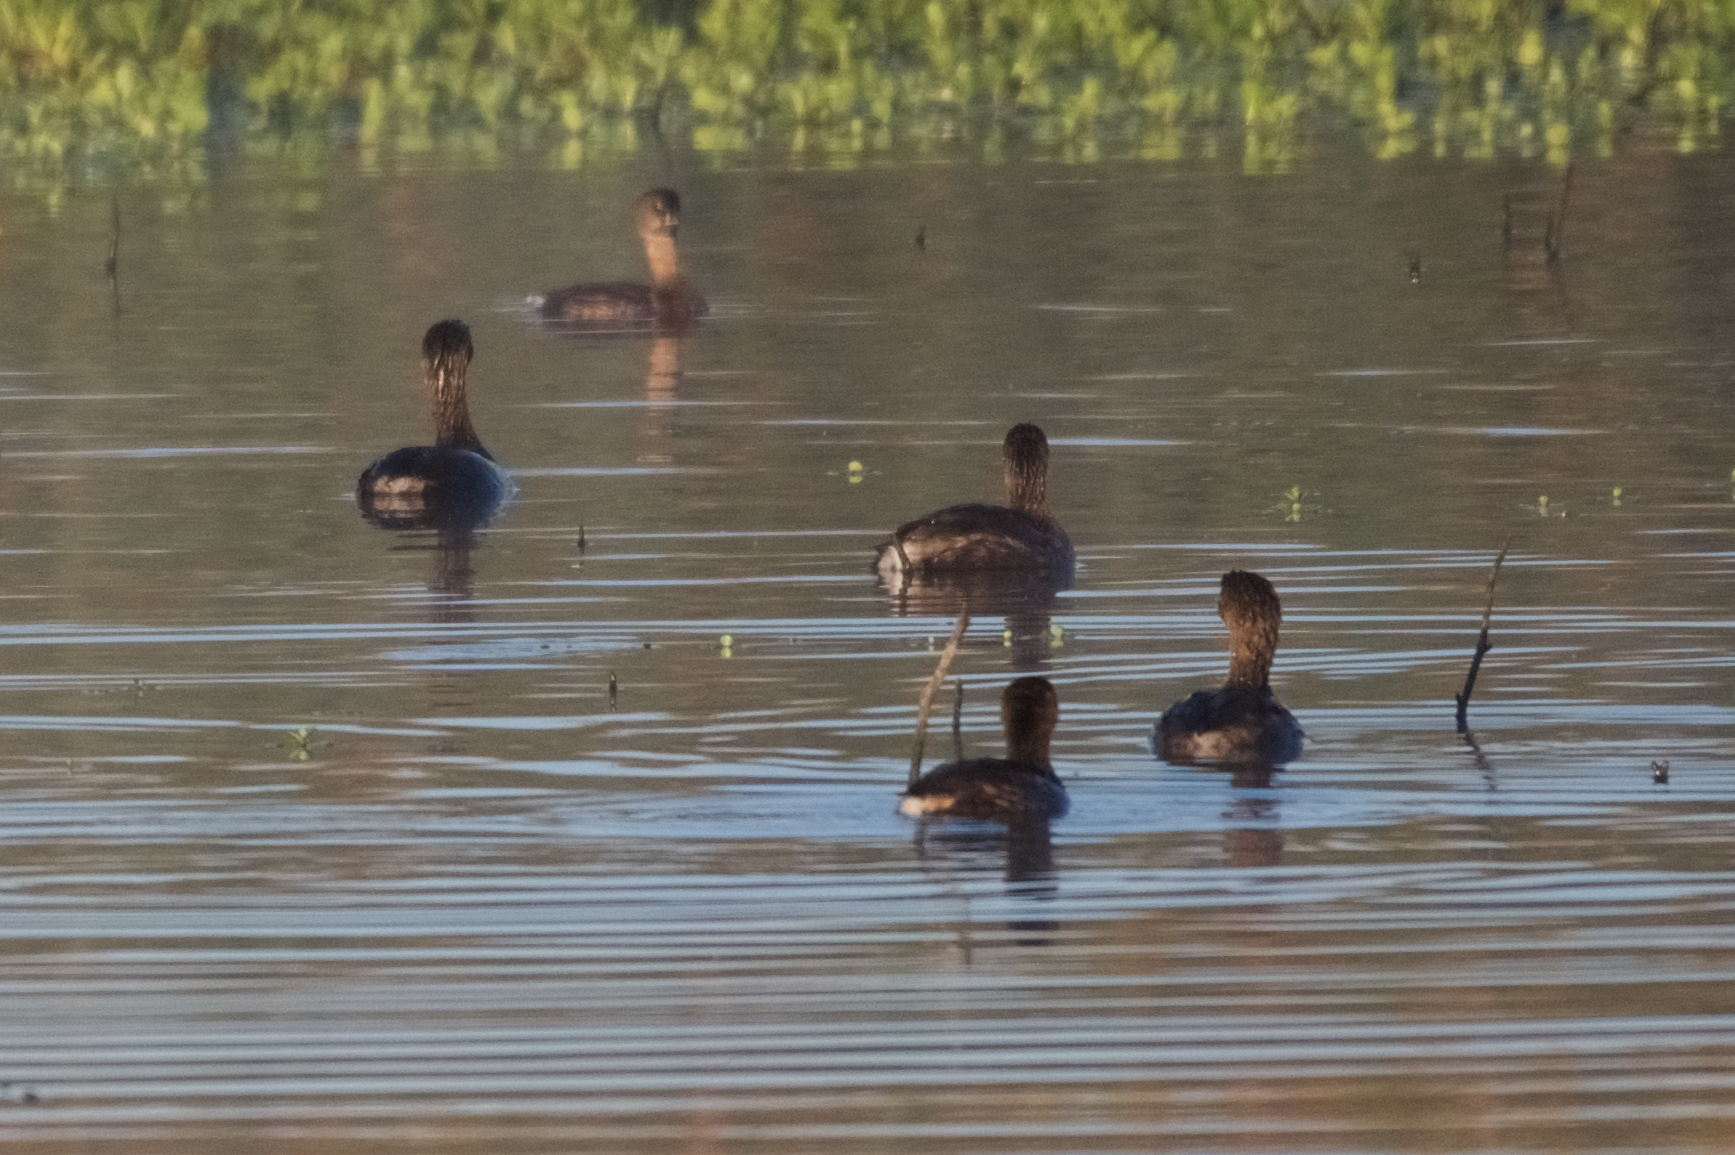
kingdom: Animalia
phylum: Chordata
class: Aves
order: Podicipediformes
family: Podicipedidae
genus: Podilymbus
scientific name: Podilymbus podiceps
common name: Pied-billed grebe
